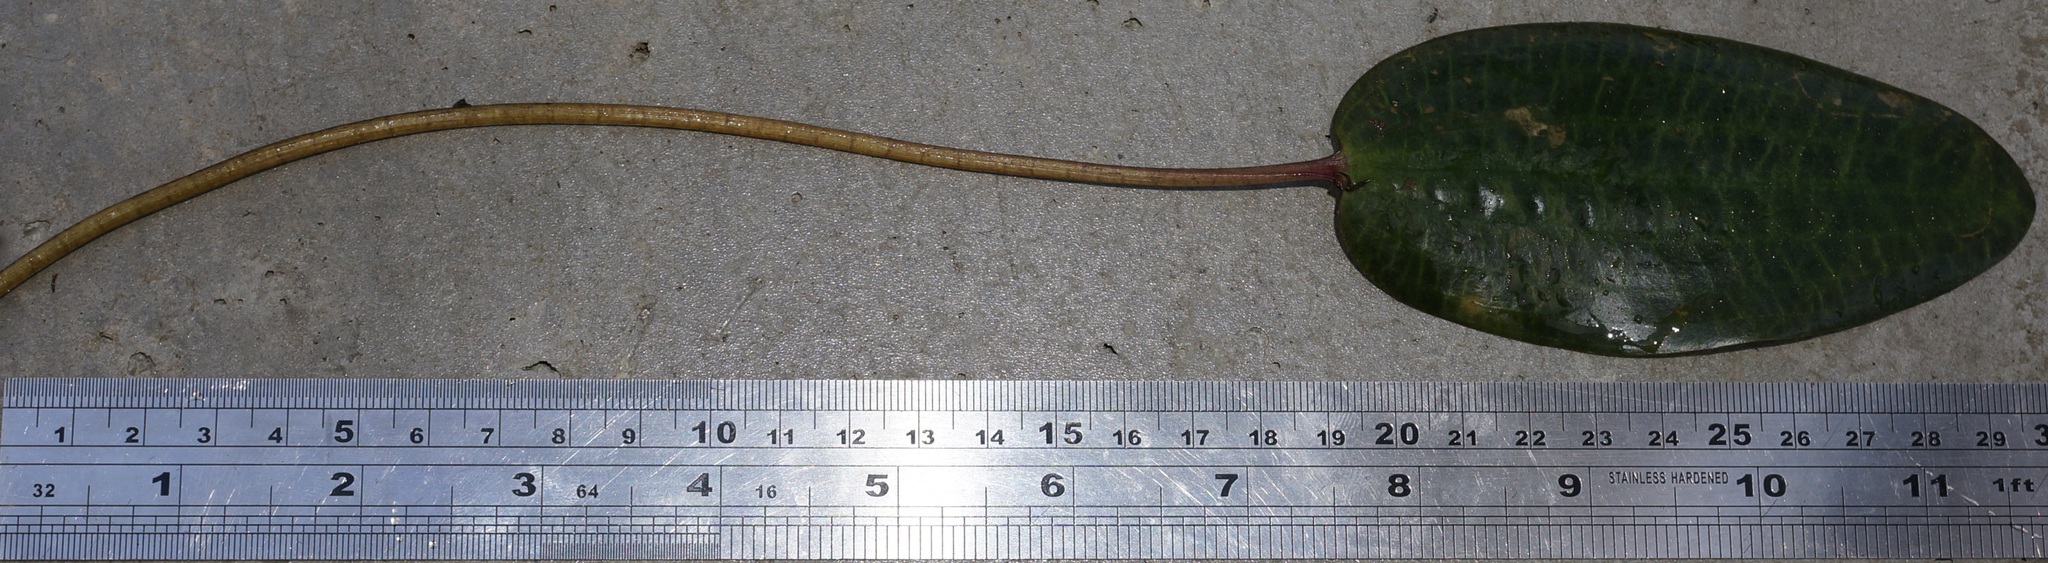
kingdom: Plantae
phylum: Tracheophyta
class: Liliopsida
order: Alismatales
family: Aponogetonaceae
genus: Aponogeton
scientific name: Aponogeton distachyos
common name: Cape-pondweed
